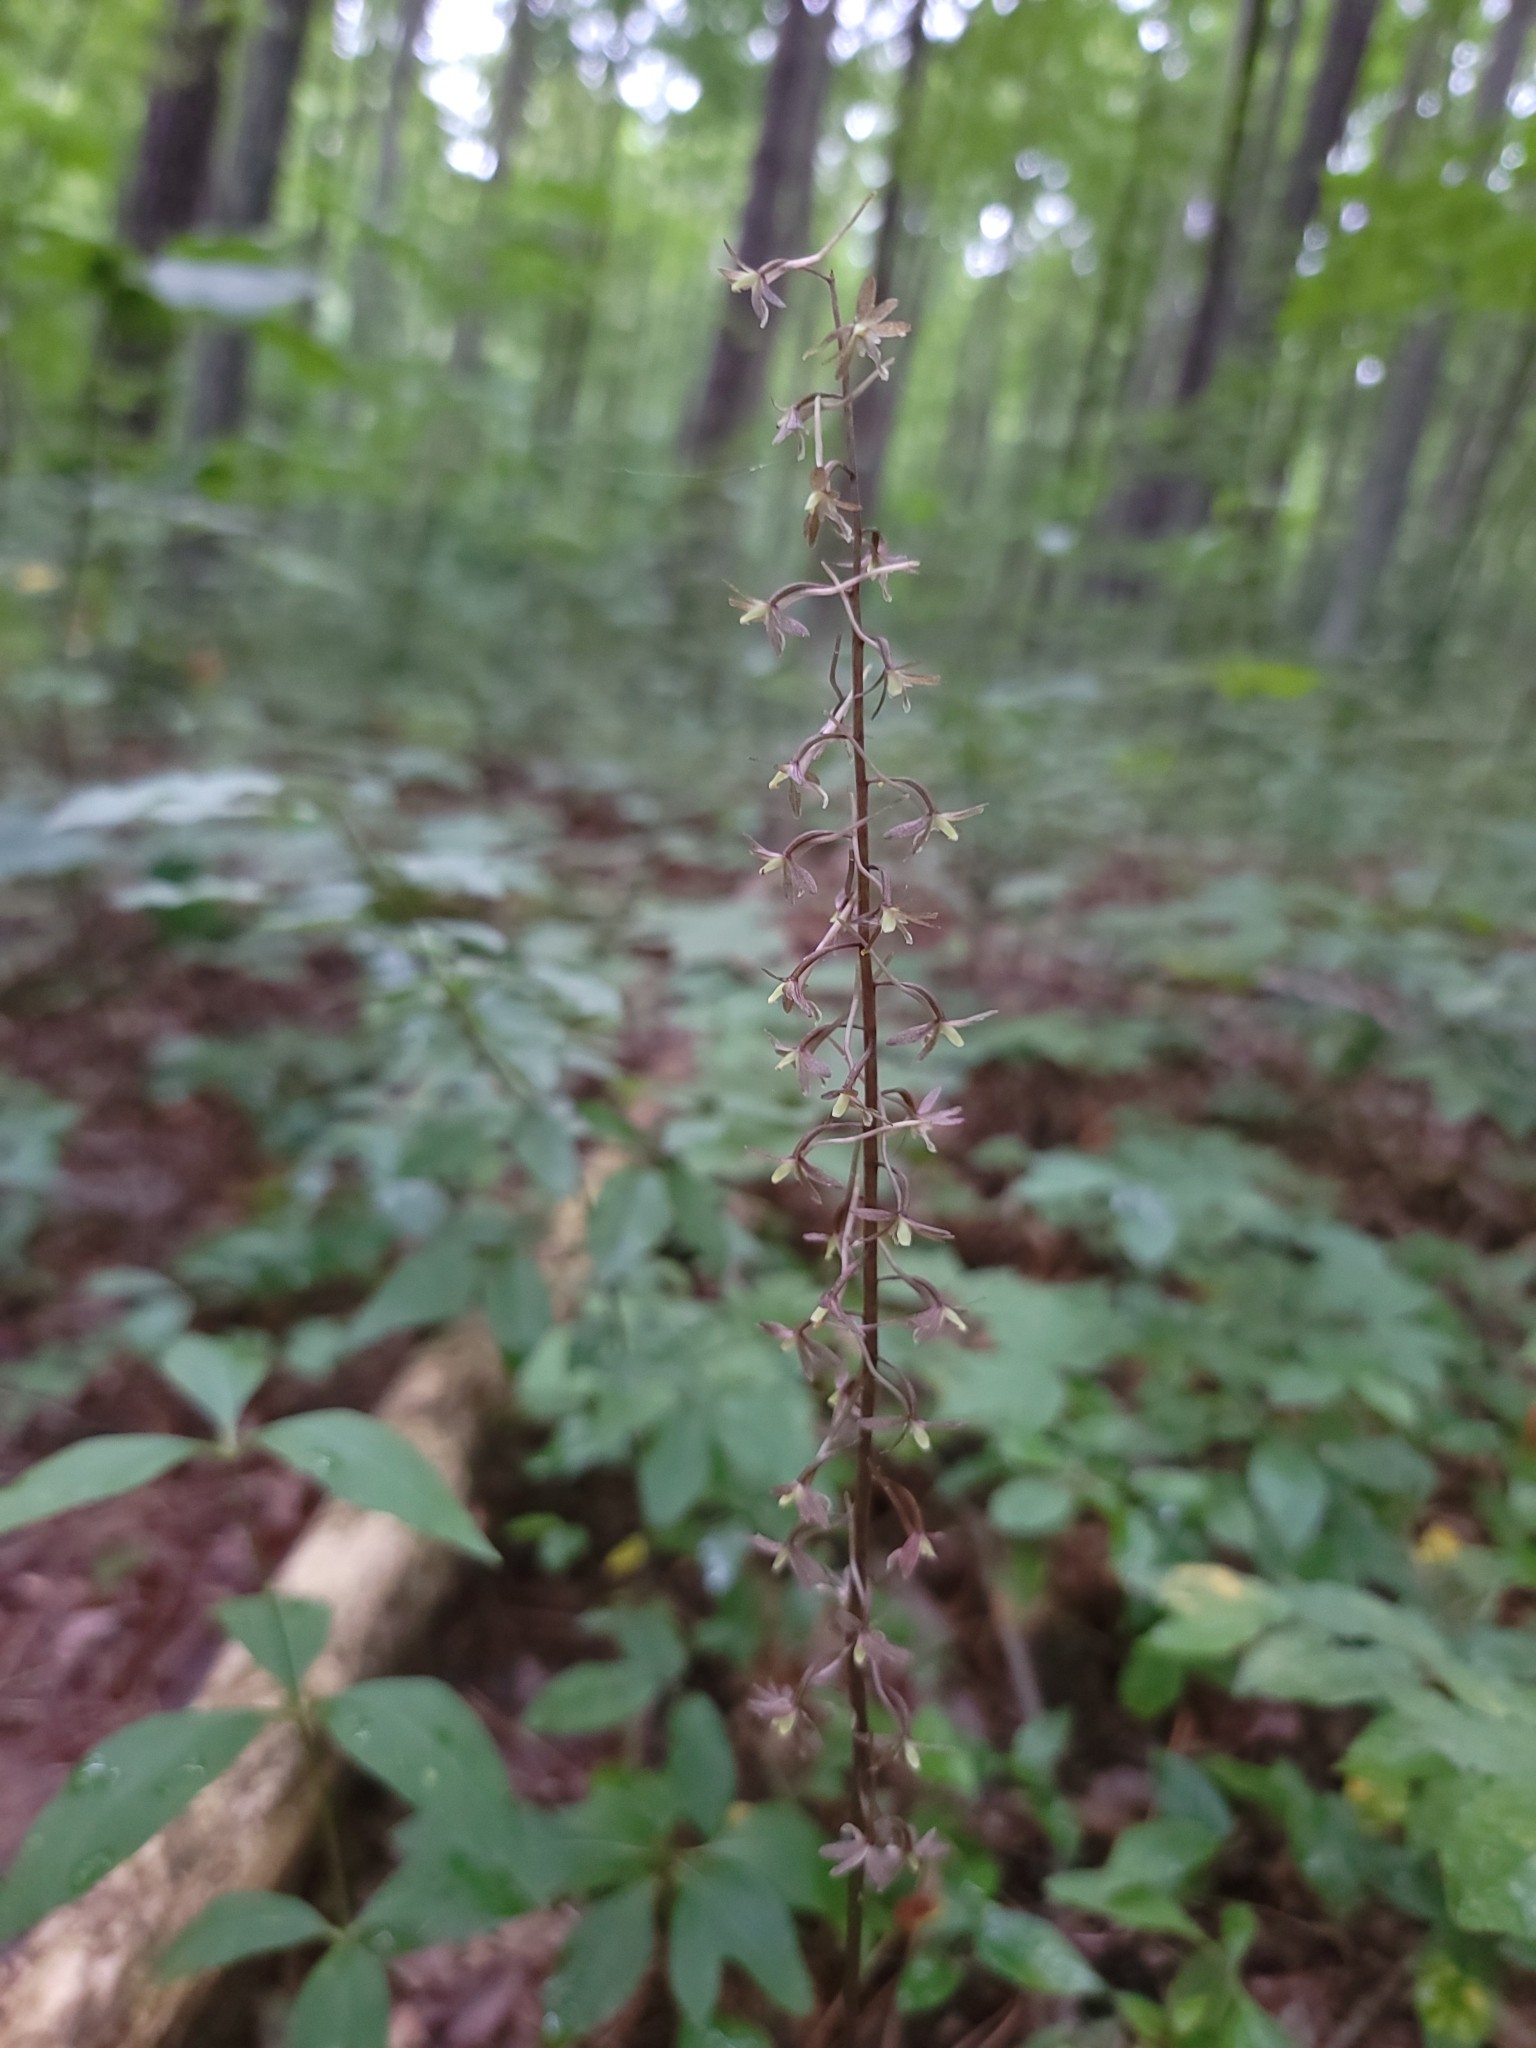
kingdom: Plantae
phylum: Tracheophyta
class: Liliopsida
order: Asparagales
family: Orchidaceae
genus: Tipularia
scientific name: Tipularia discolor
